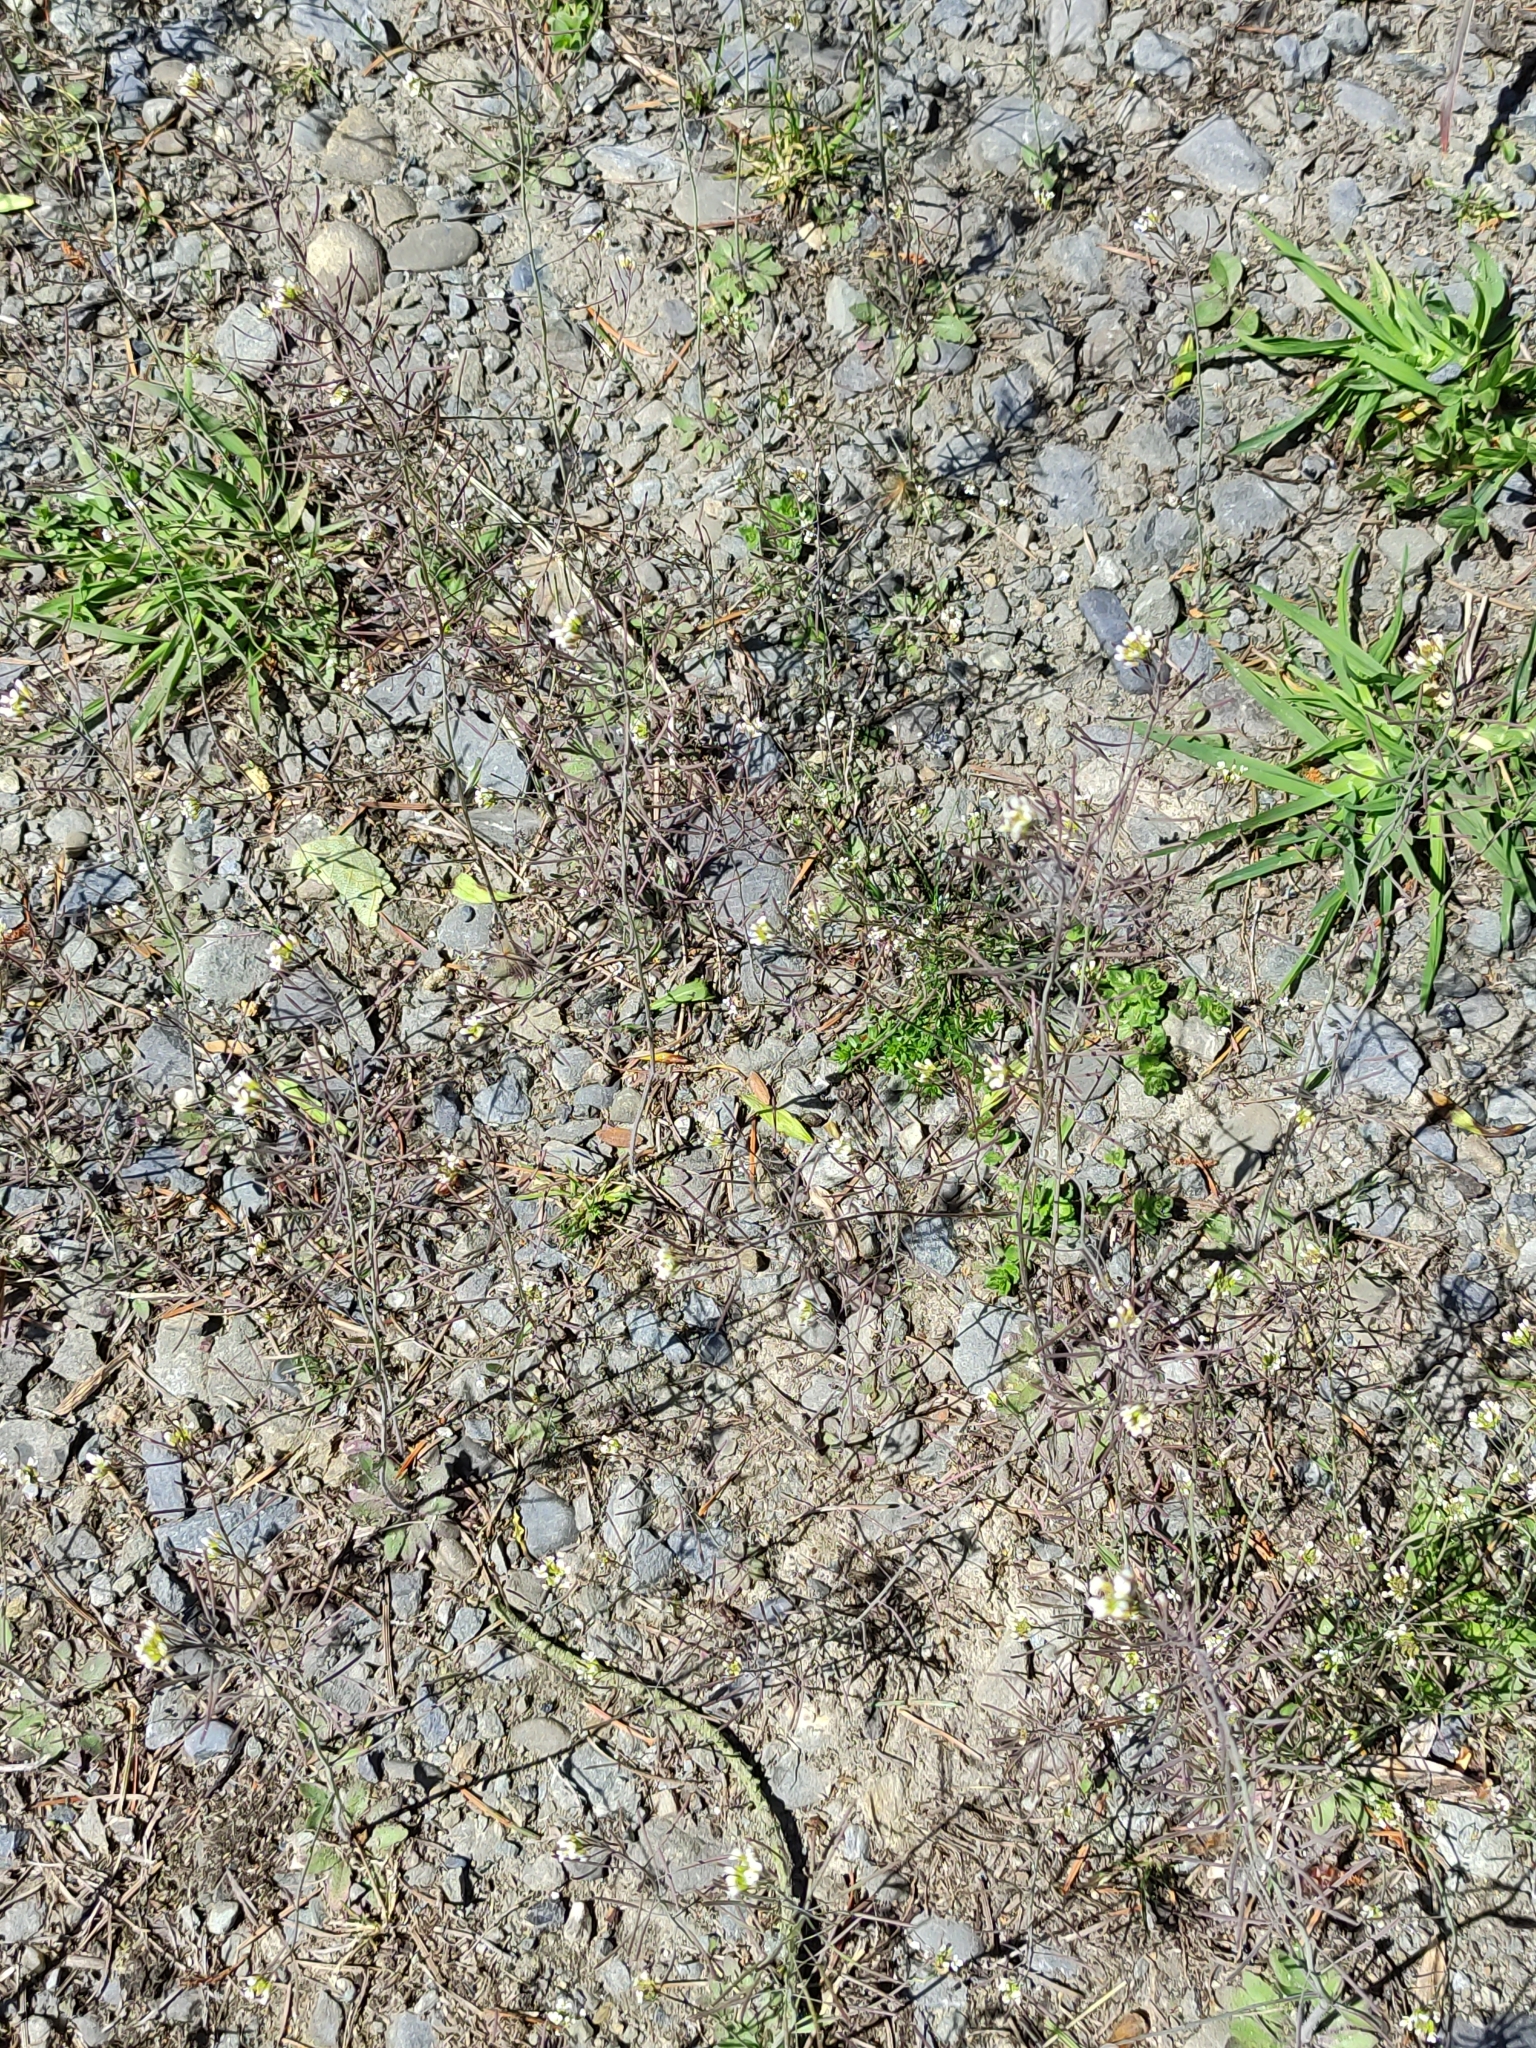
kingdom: Plantae
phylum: Tracheophyta
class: Magnoliopsida
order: Brassicales
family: Brassicaceae
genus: Arabidopsis
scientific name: Arabidopsis thaliana
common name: Thale cress
